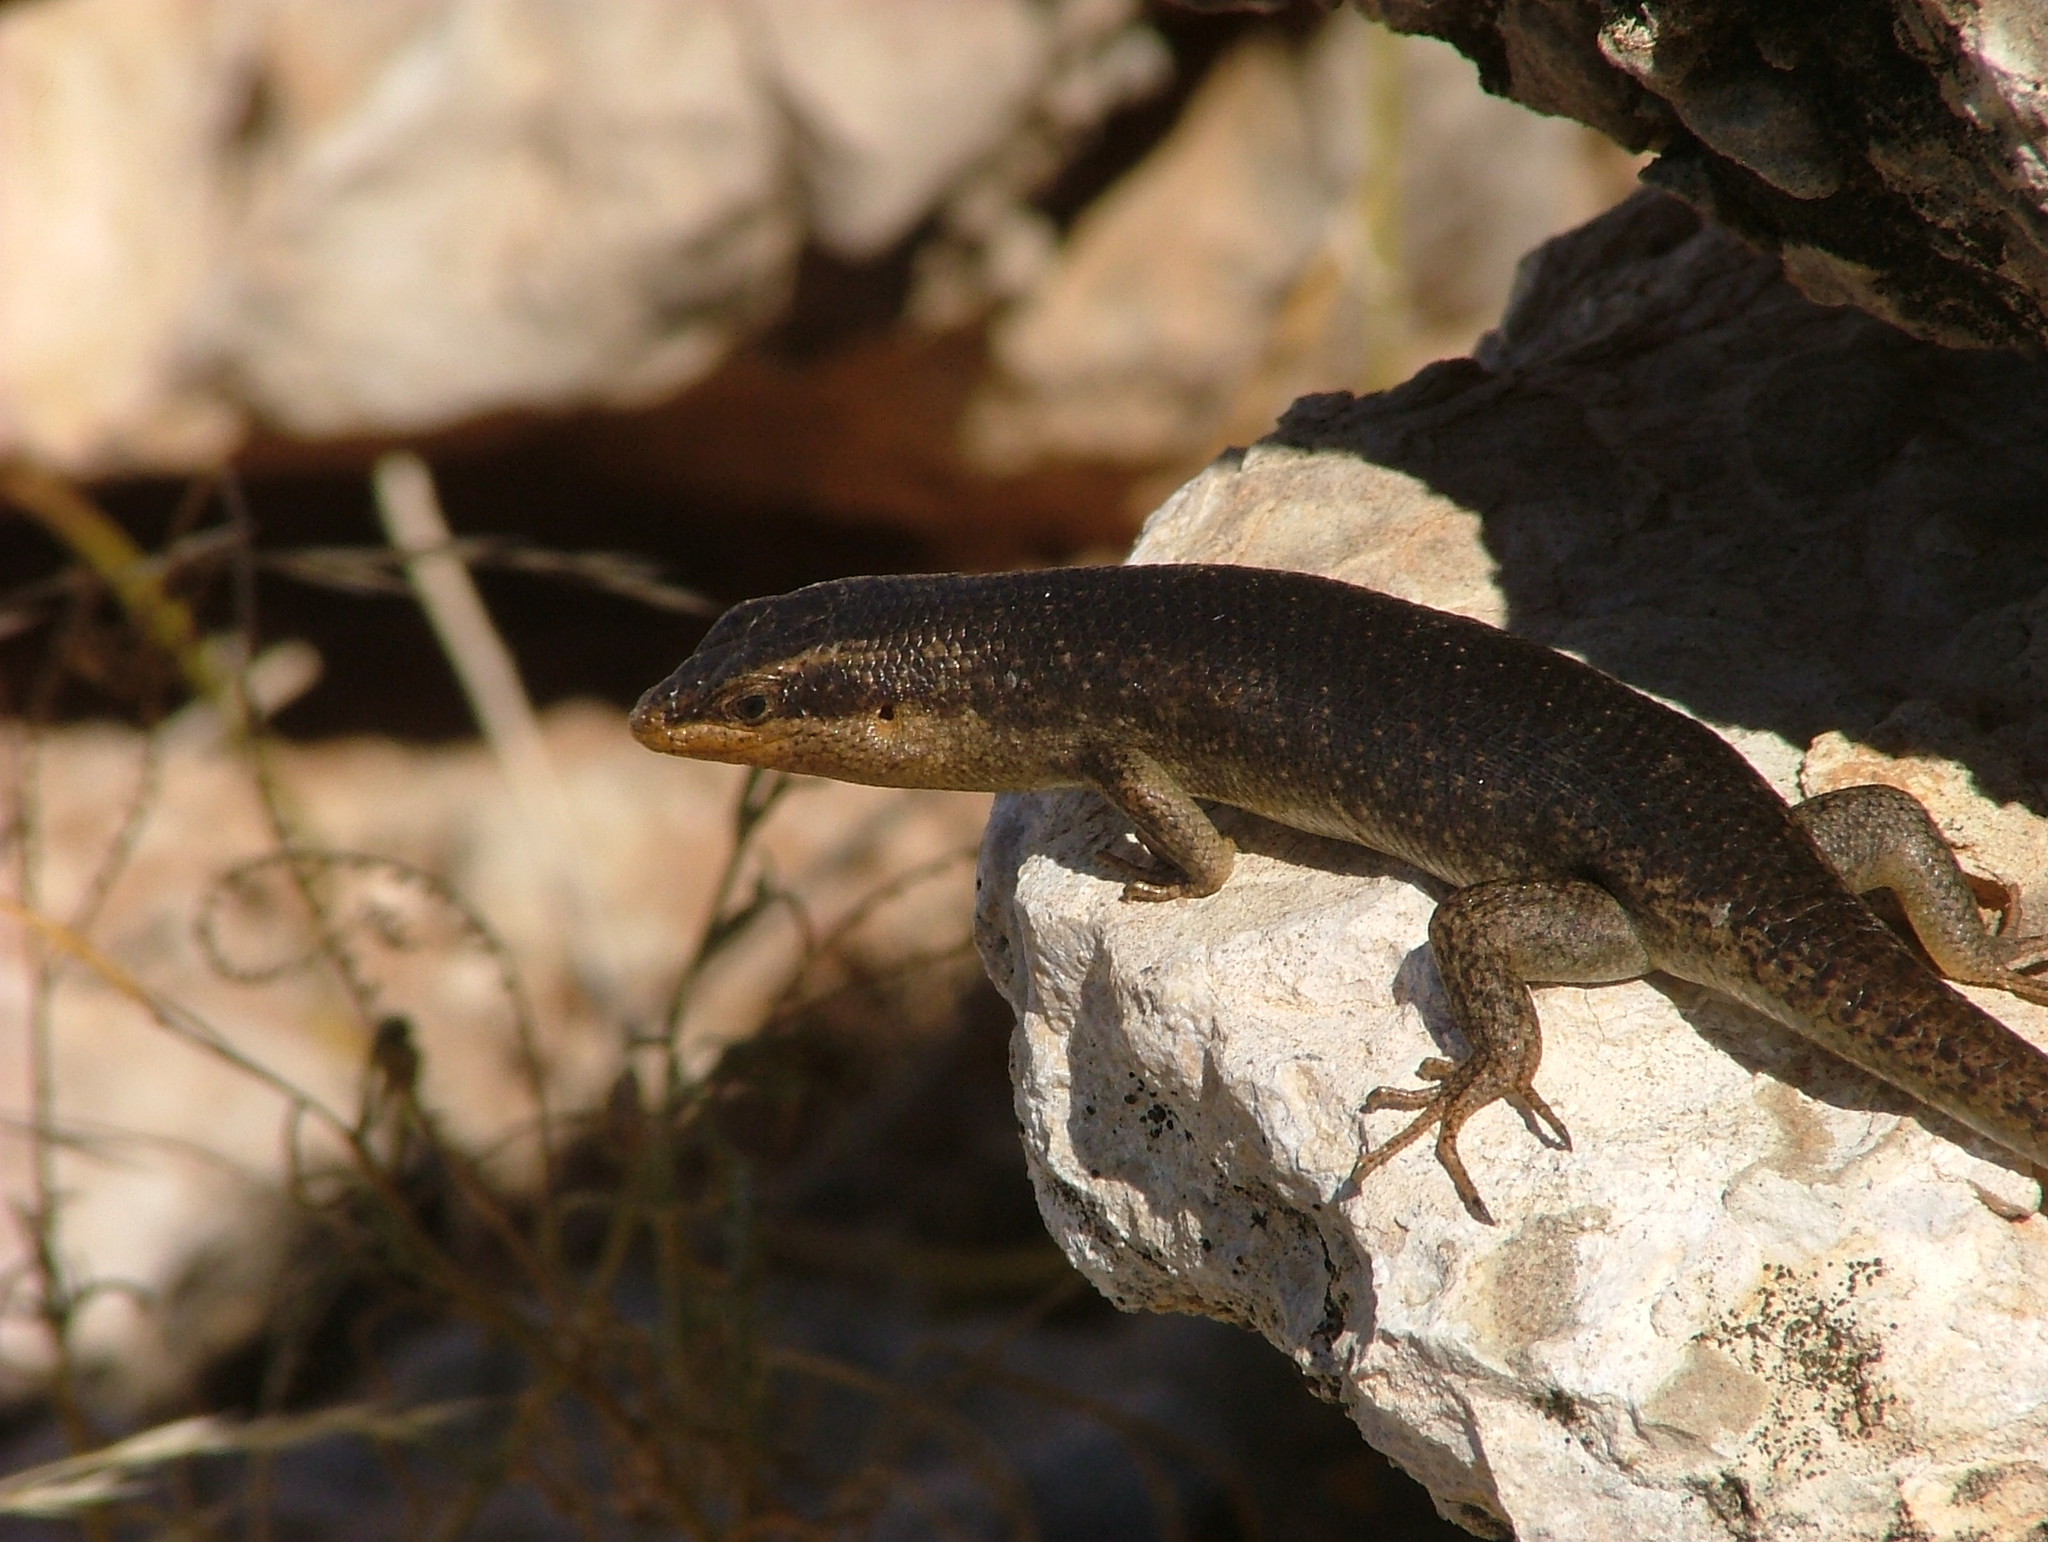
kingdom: Animalia
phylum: Chordata
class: Squamata
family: Scincidae
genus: Trachylepis
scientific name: Trachylepis sparsa
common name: Karasburg tree skink
